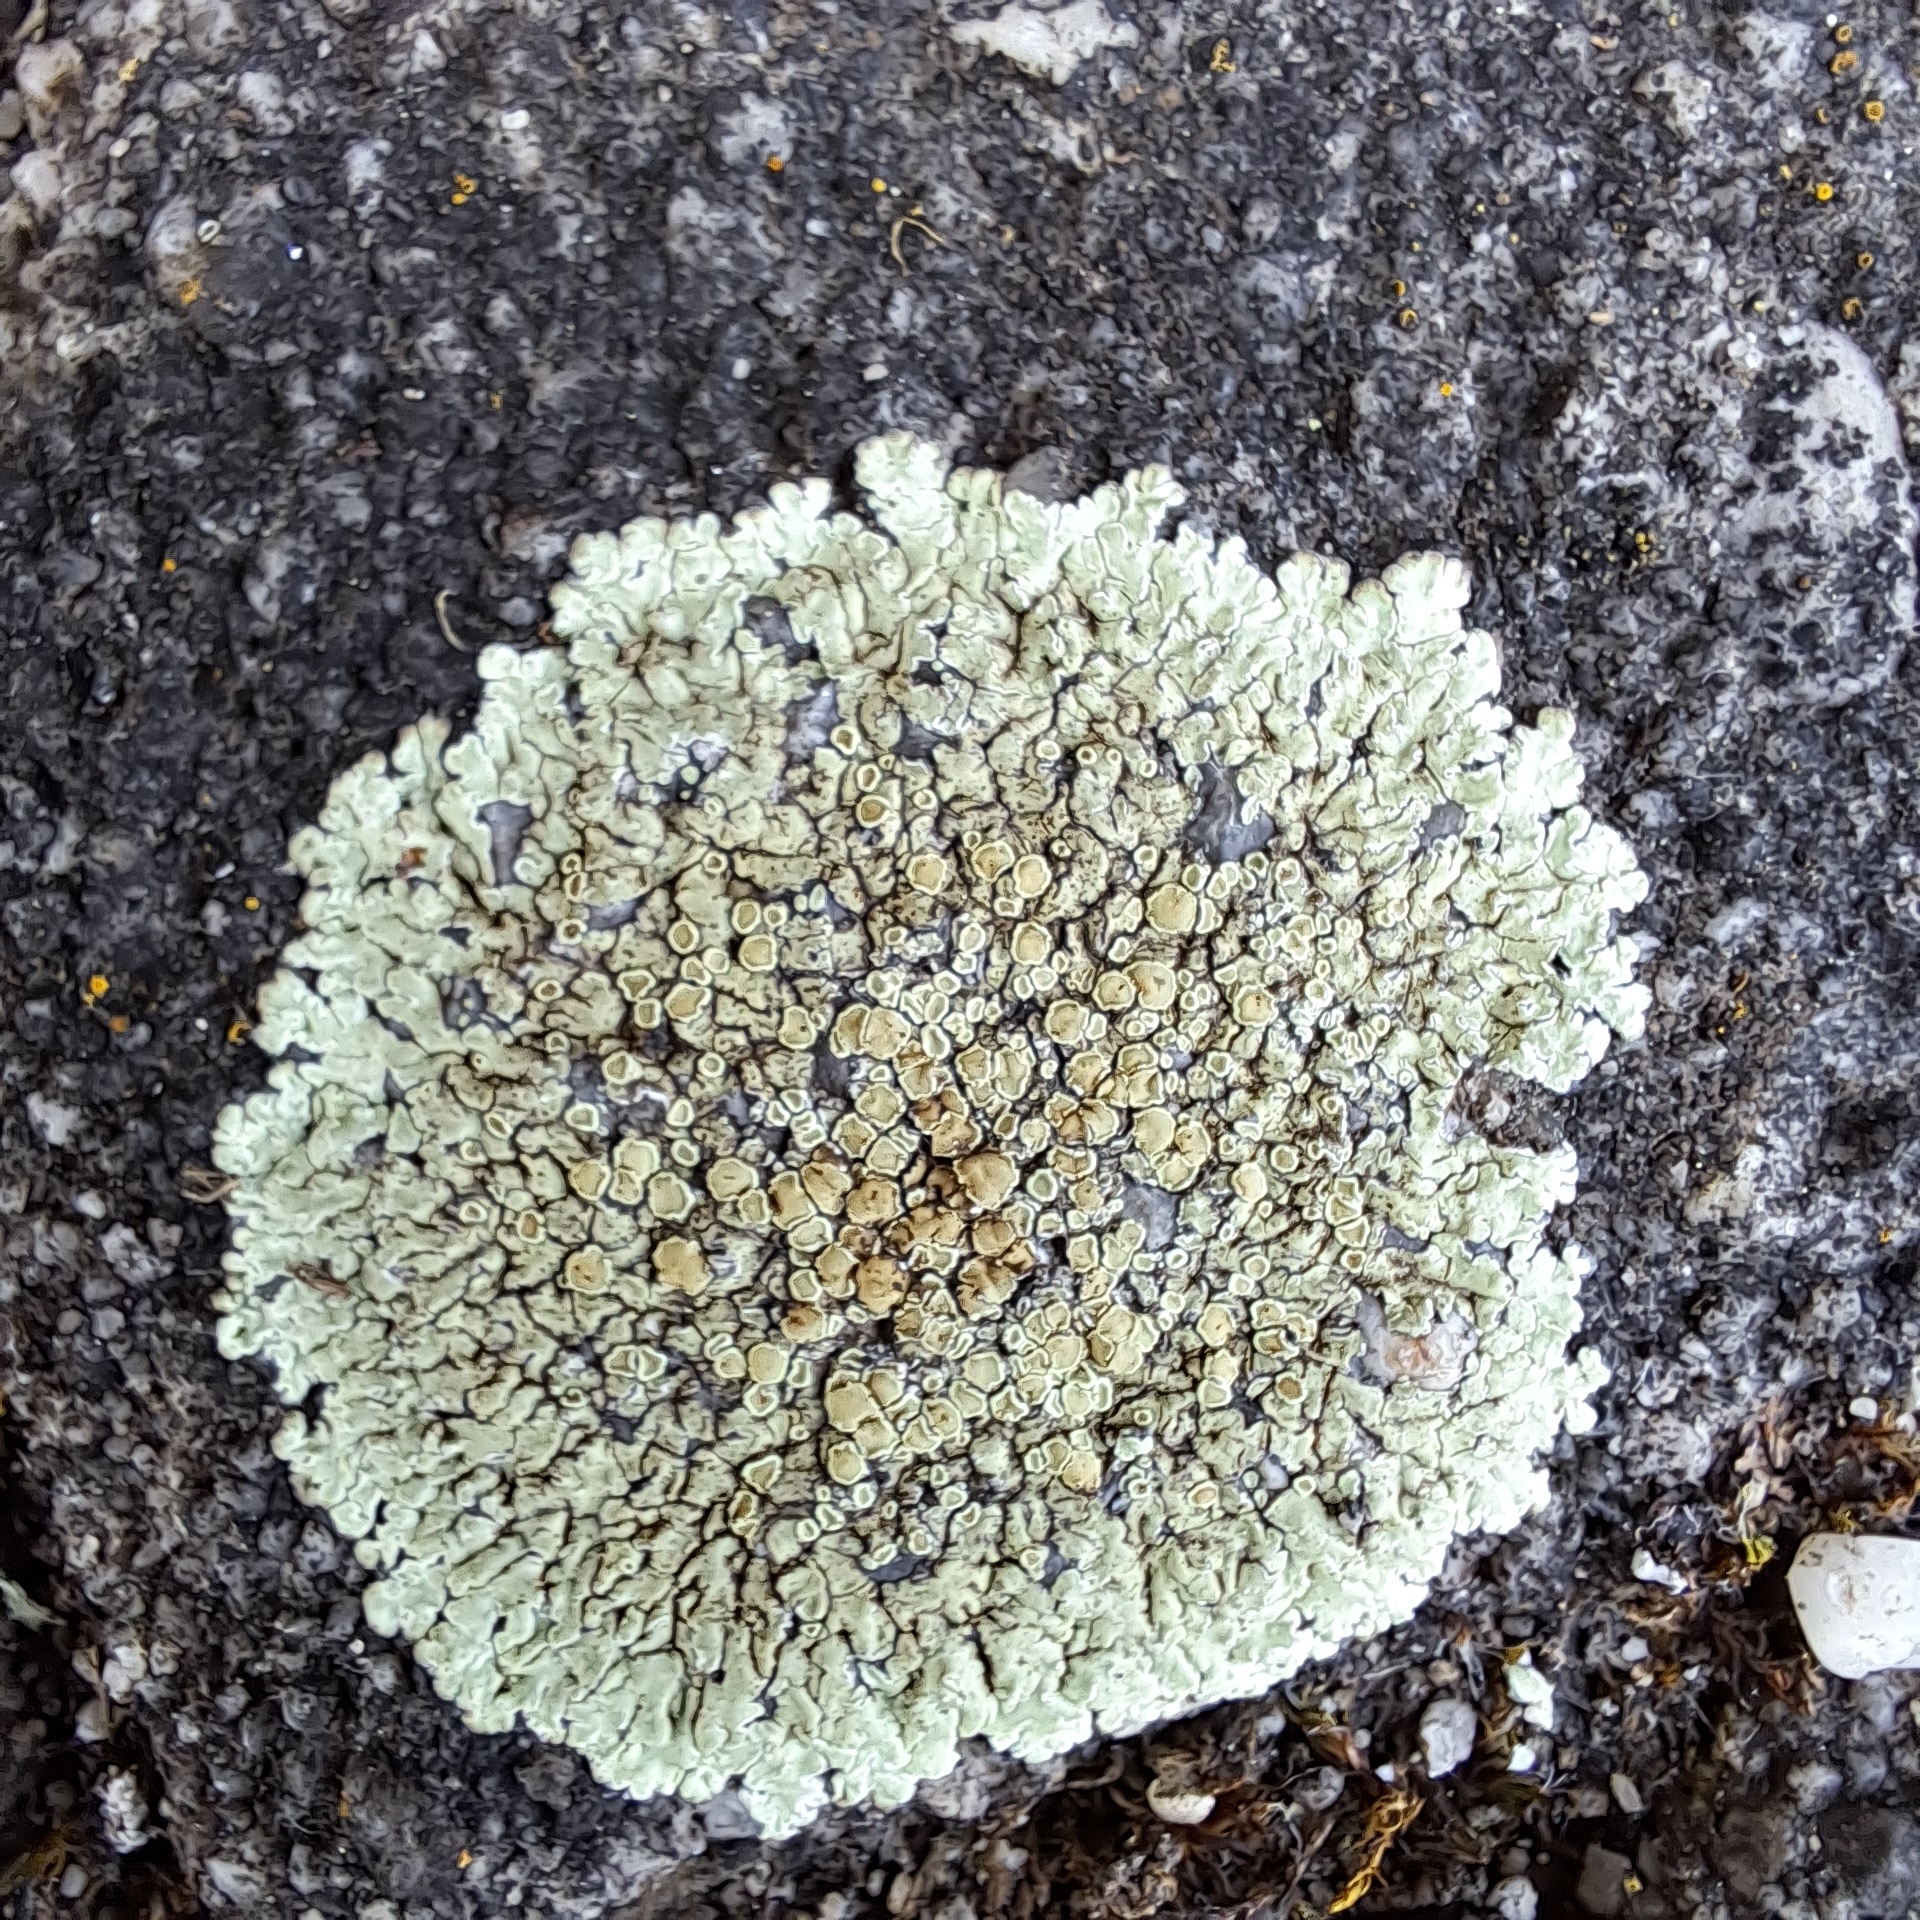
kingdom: Fungi
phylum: Ascomycota
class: Lecanoromycetes
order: Lecanorales
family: Lecanoraceae
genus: Protoparmeliopsis
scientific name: Protoparmeliopsis muralis
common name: Stonewall rim lichen
